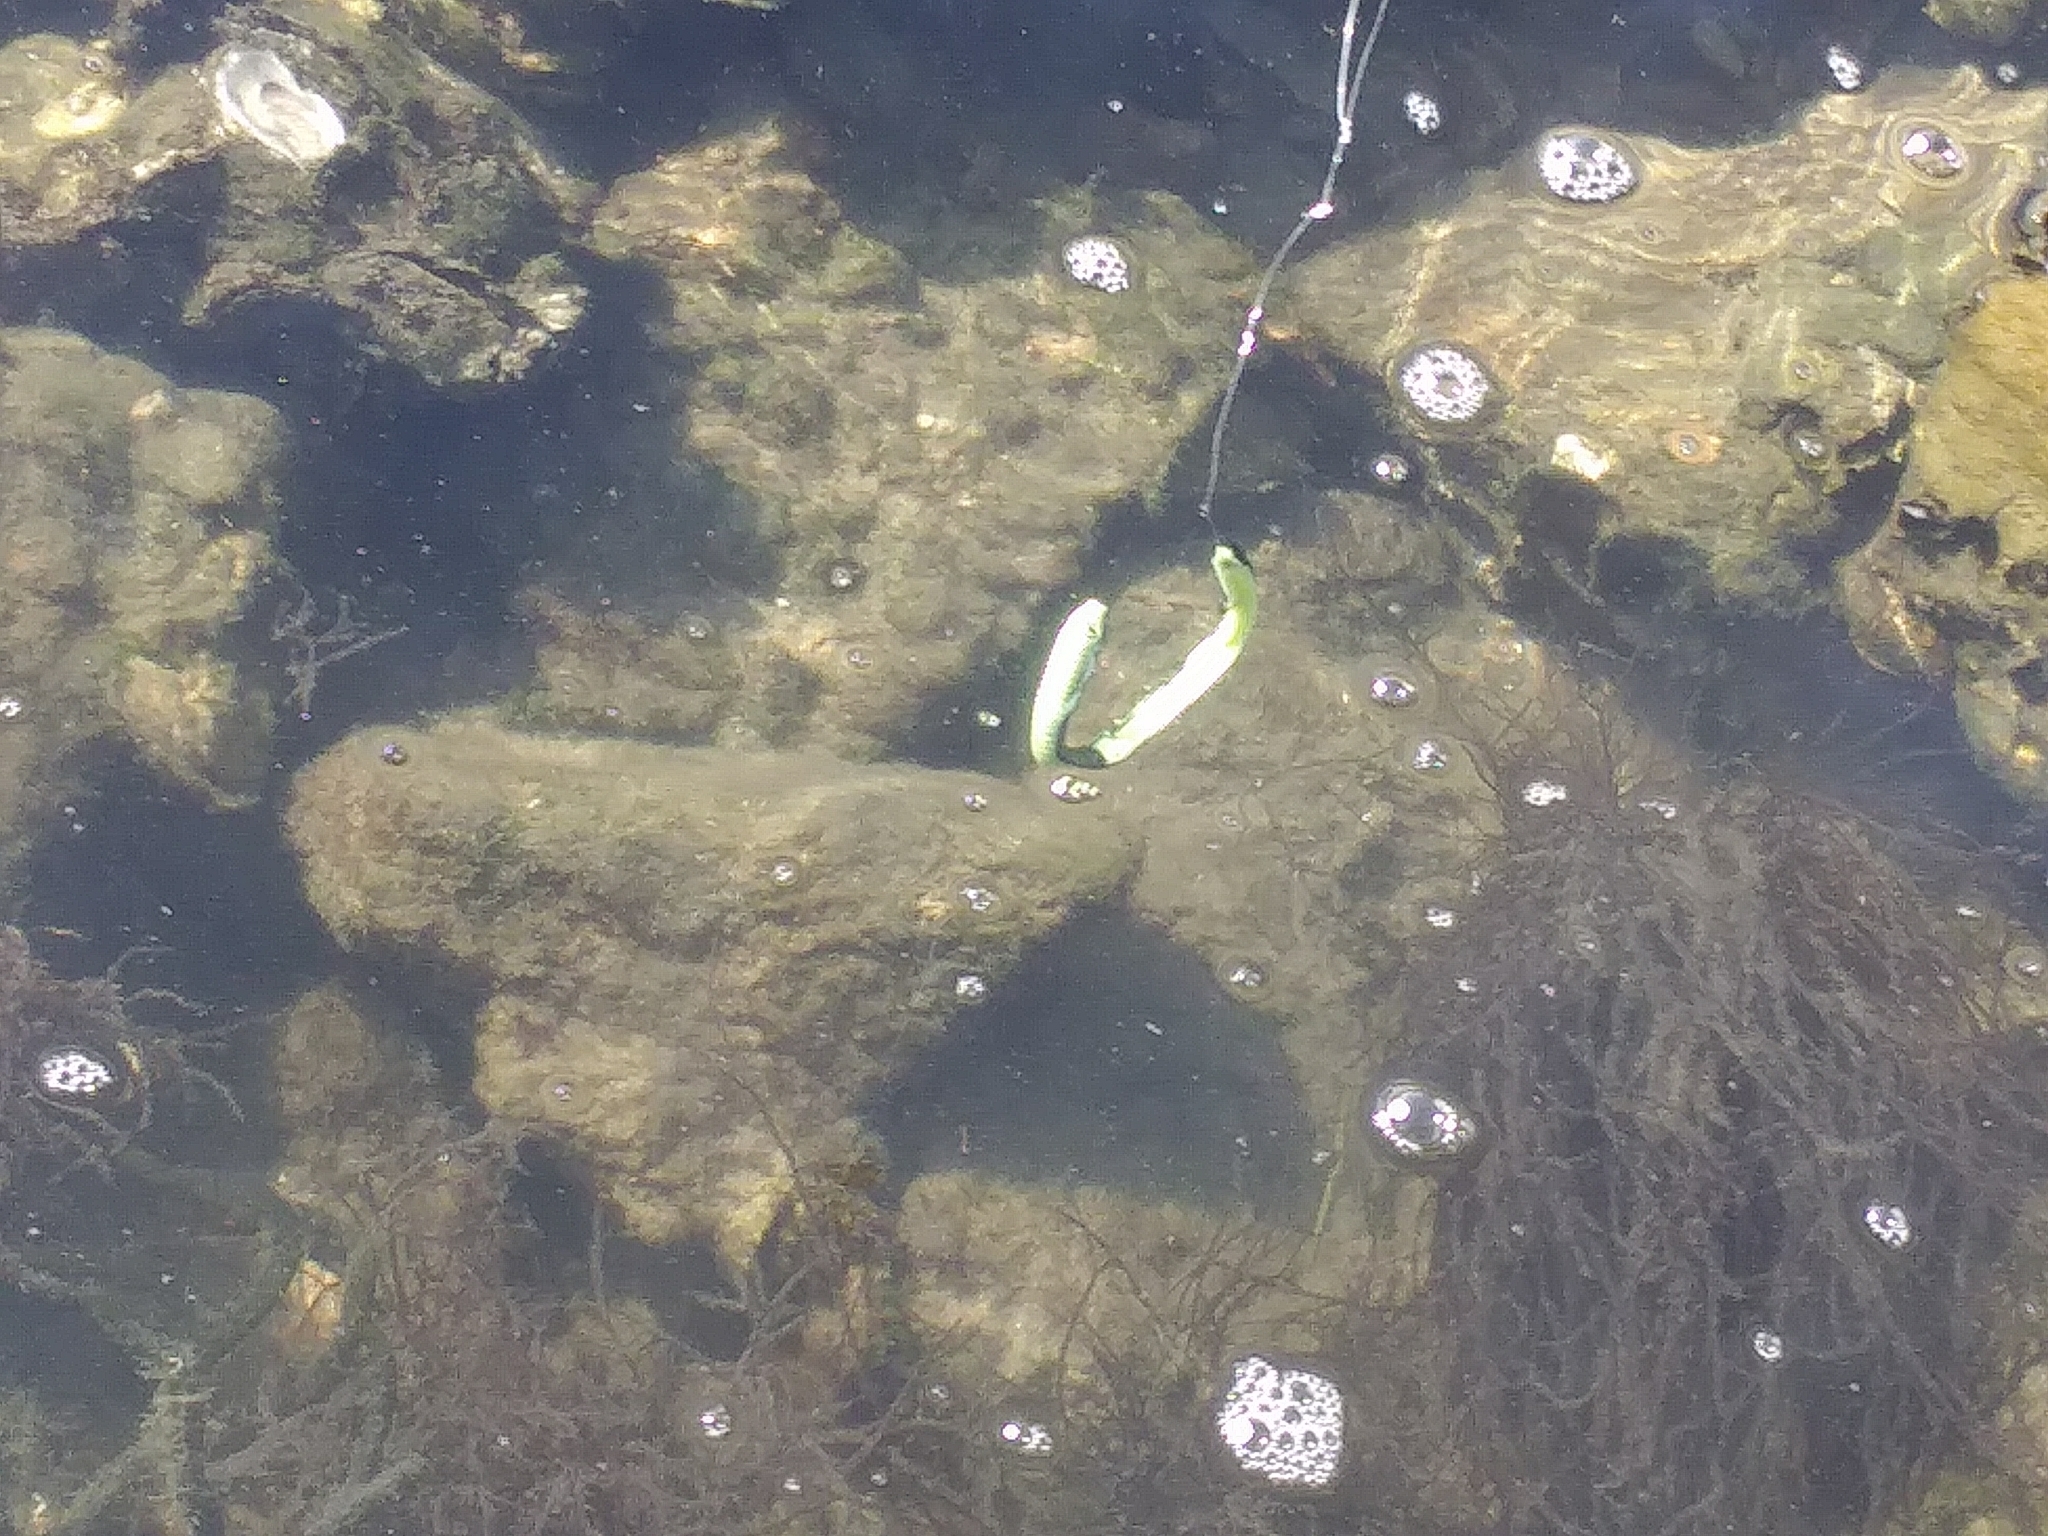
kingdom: Animalia
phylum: Mollusca
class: Bivalvia
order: Ostreida
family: Ostreidae
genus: Crassostrea
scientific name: Crassostrea virginica
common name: American oyster
